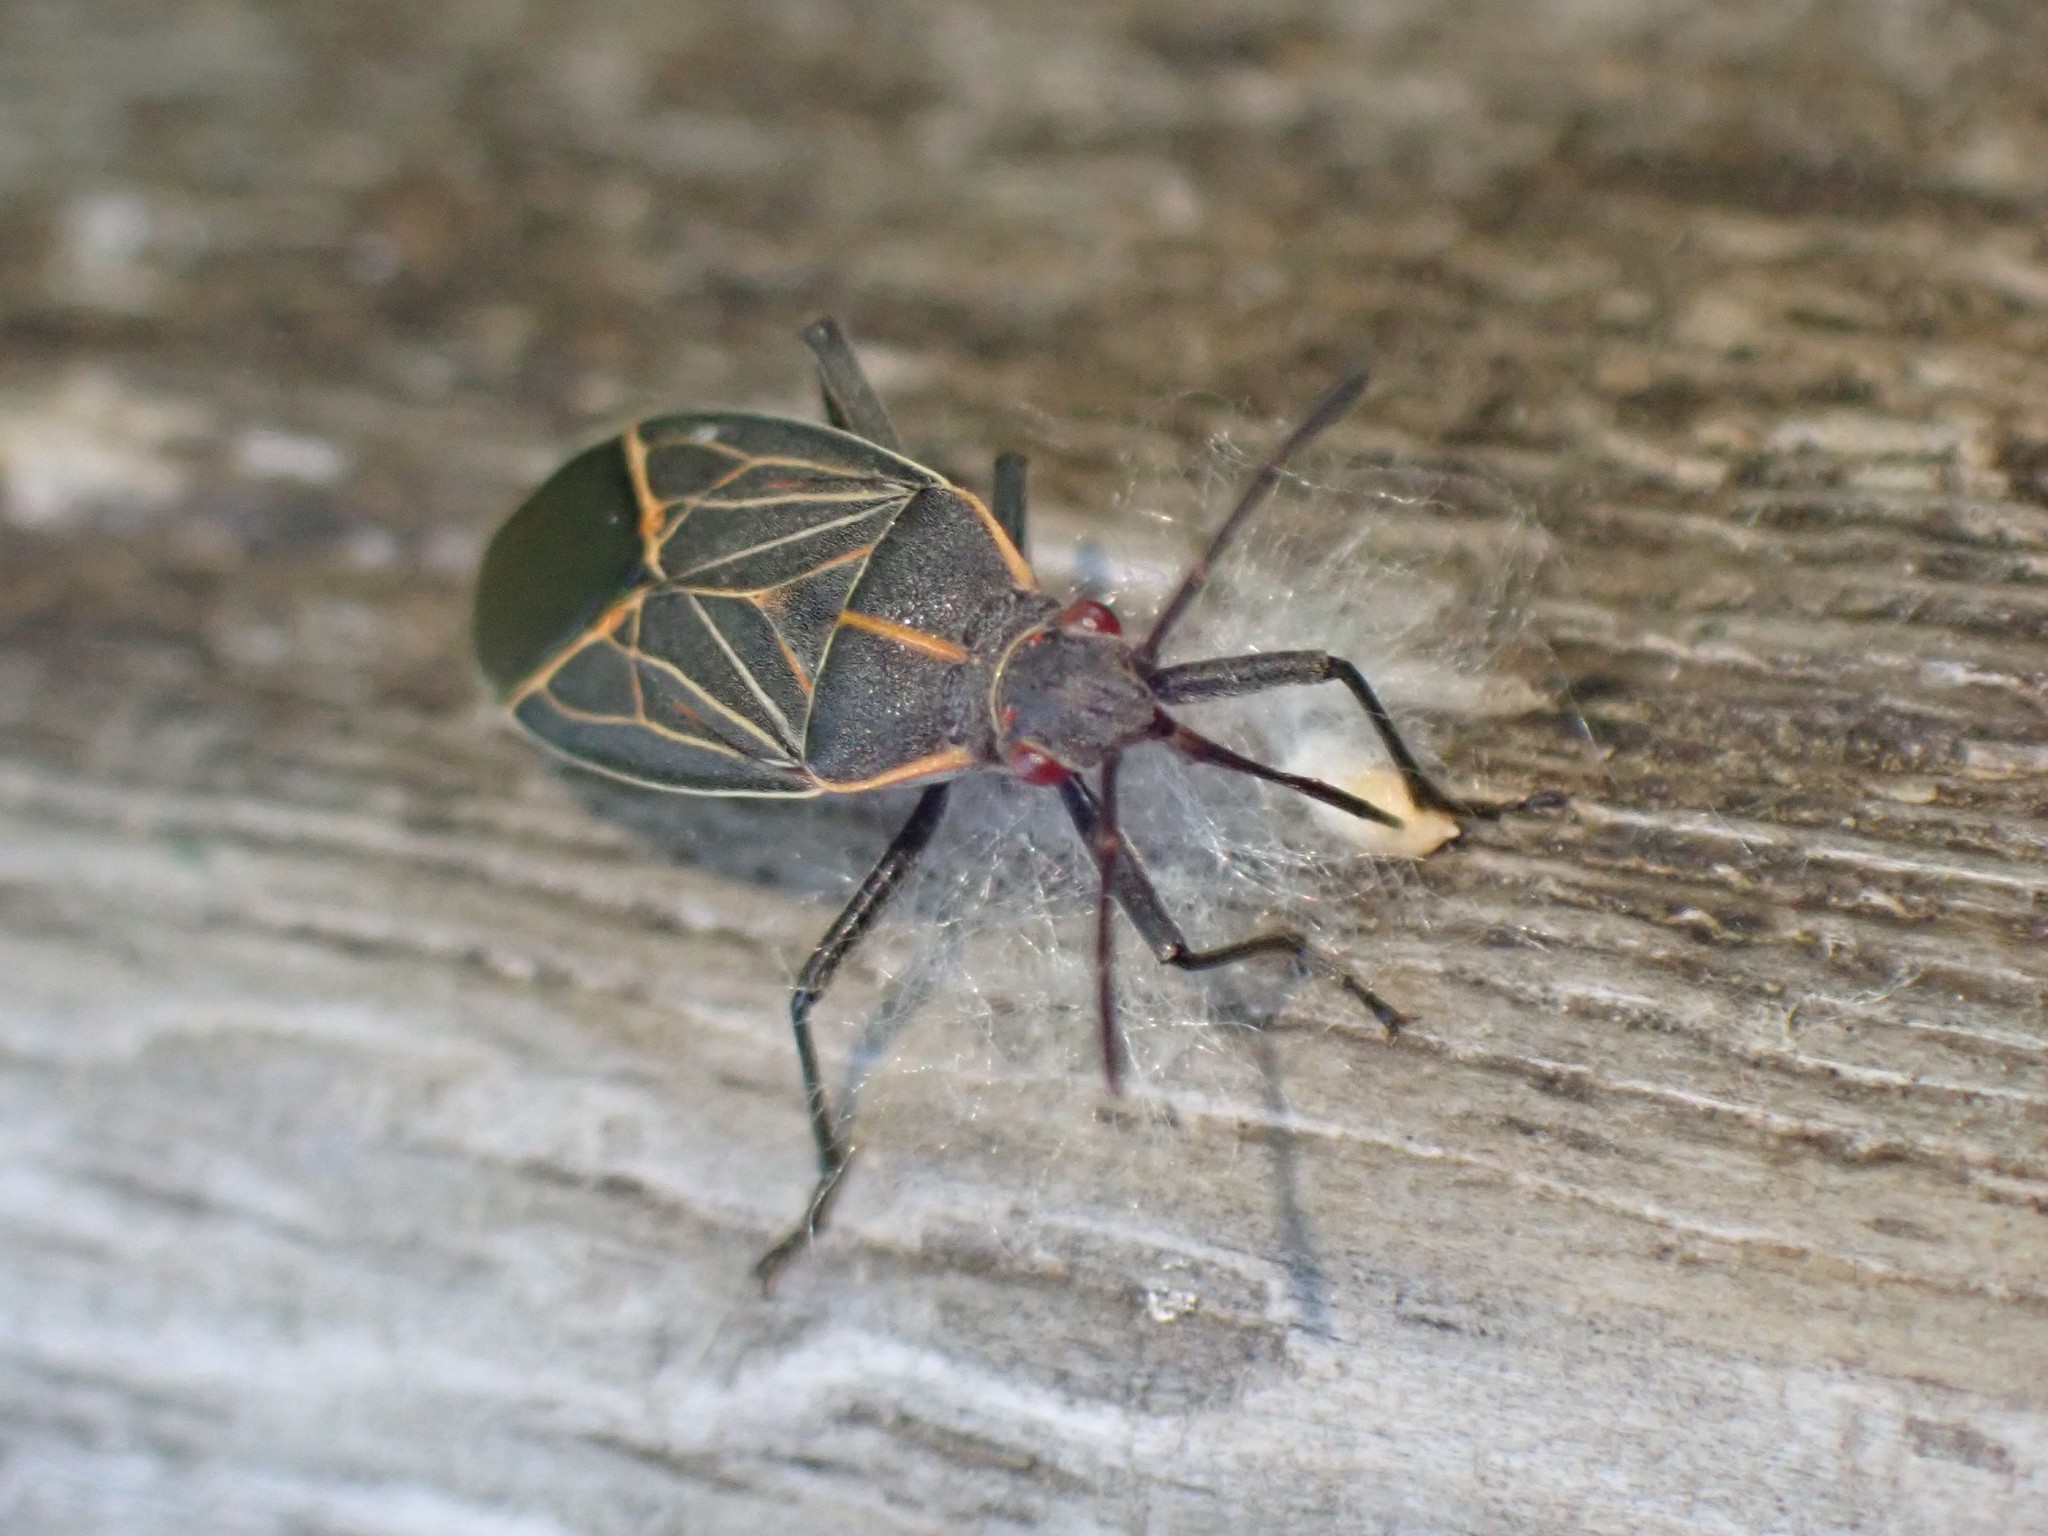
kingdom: Animalia
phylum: Arthropoda
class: Insecta
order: Hemiptera
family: Rhopalidae
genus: Boisea
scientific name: Boisea rubrolineata
